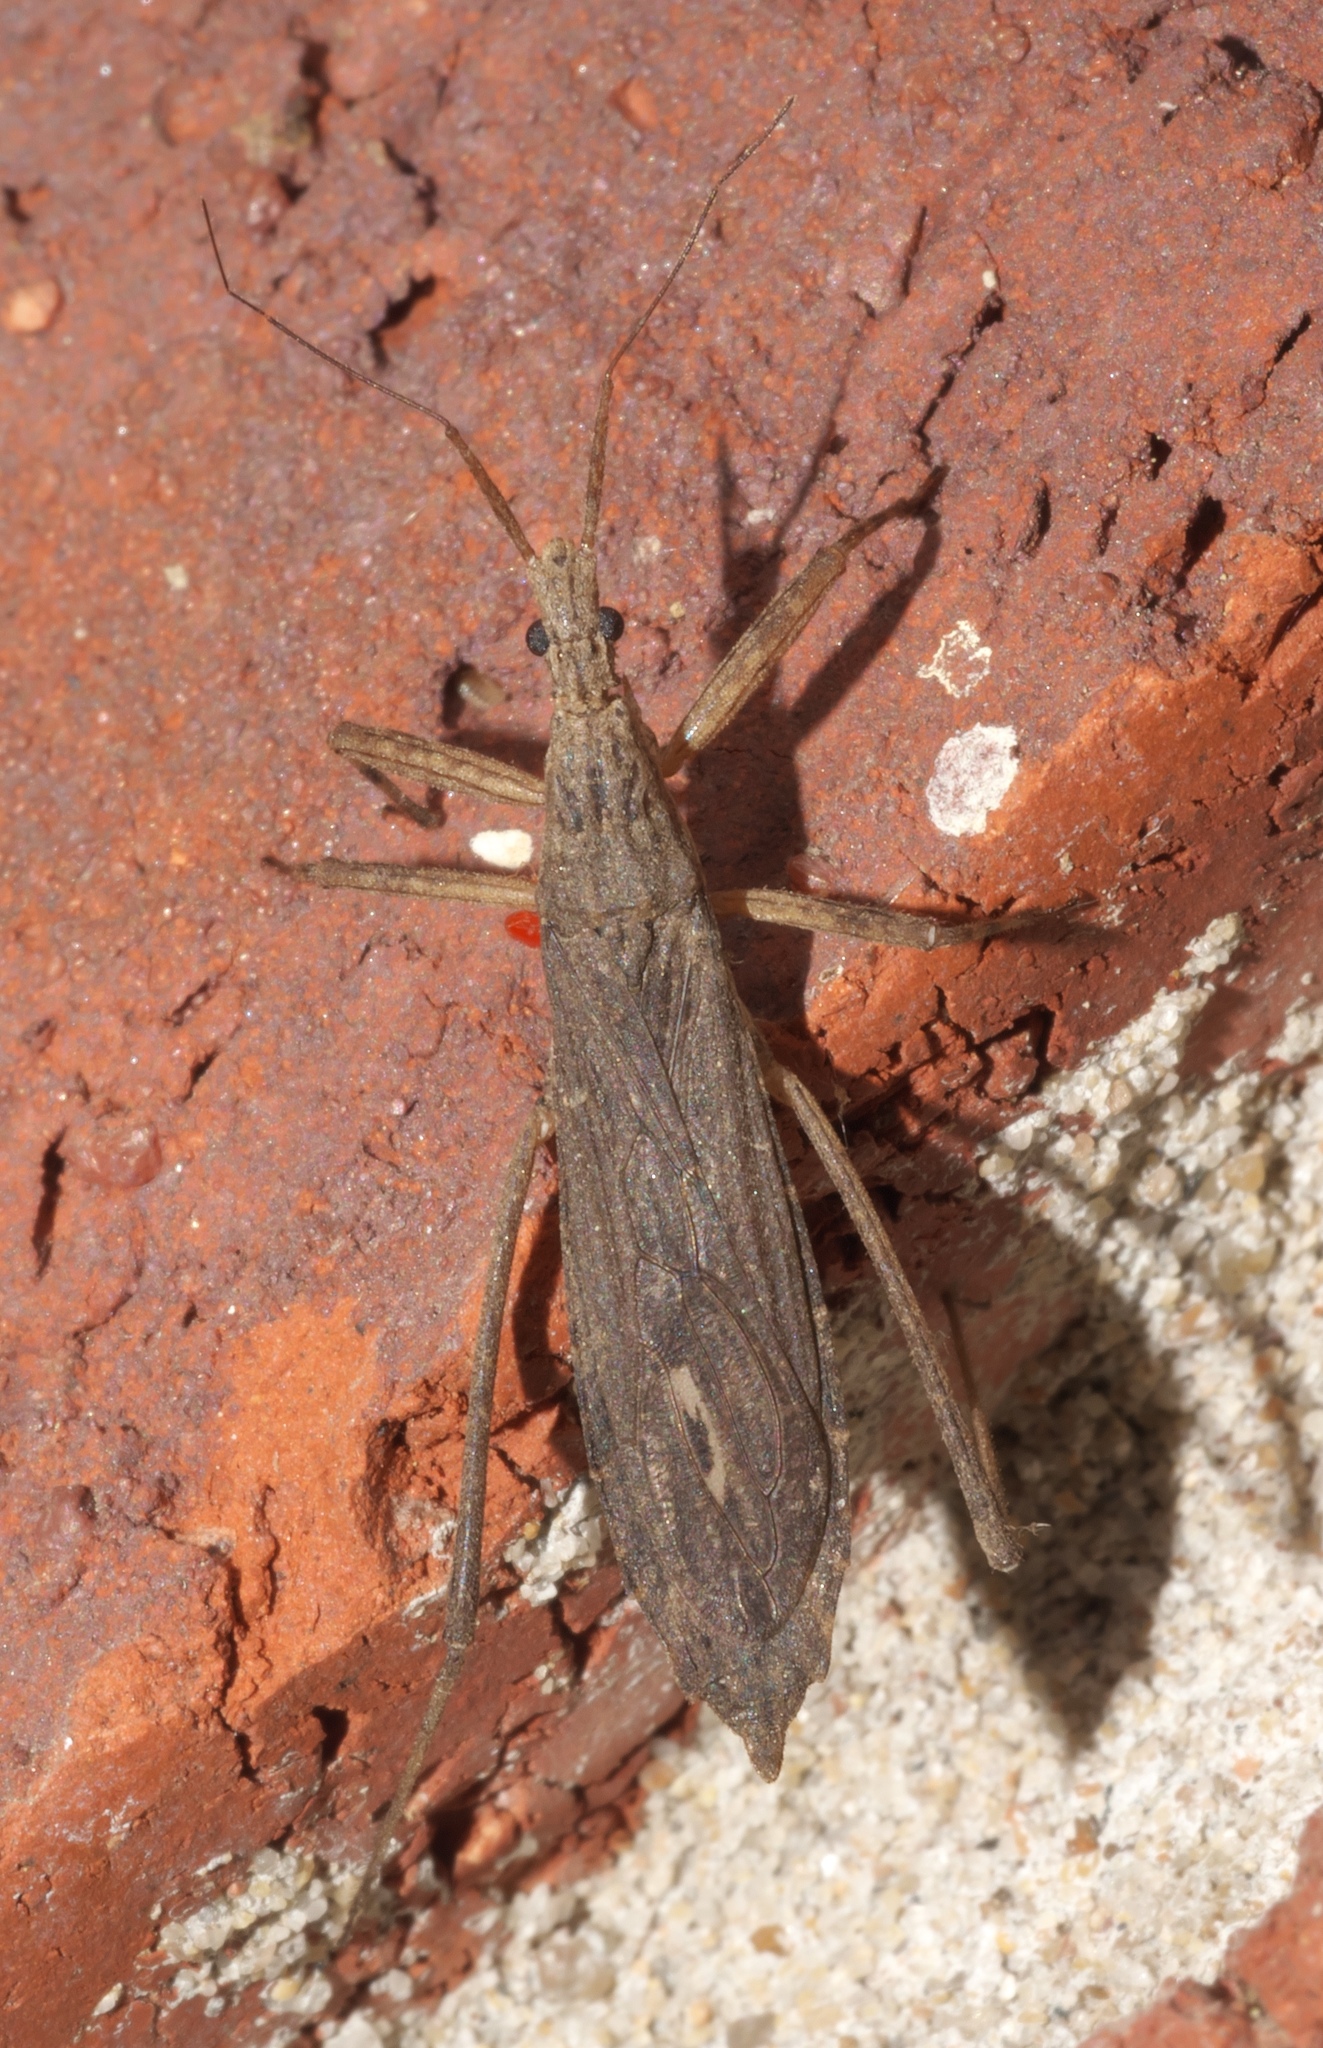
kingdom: Animalia
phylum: Arthropoda
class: Insecta
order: Hemiptera
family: Reduviidae
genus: Pygolampis
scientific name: Pygolampis pectoralis
